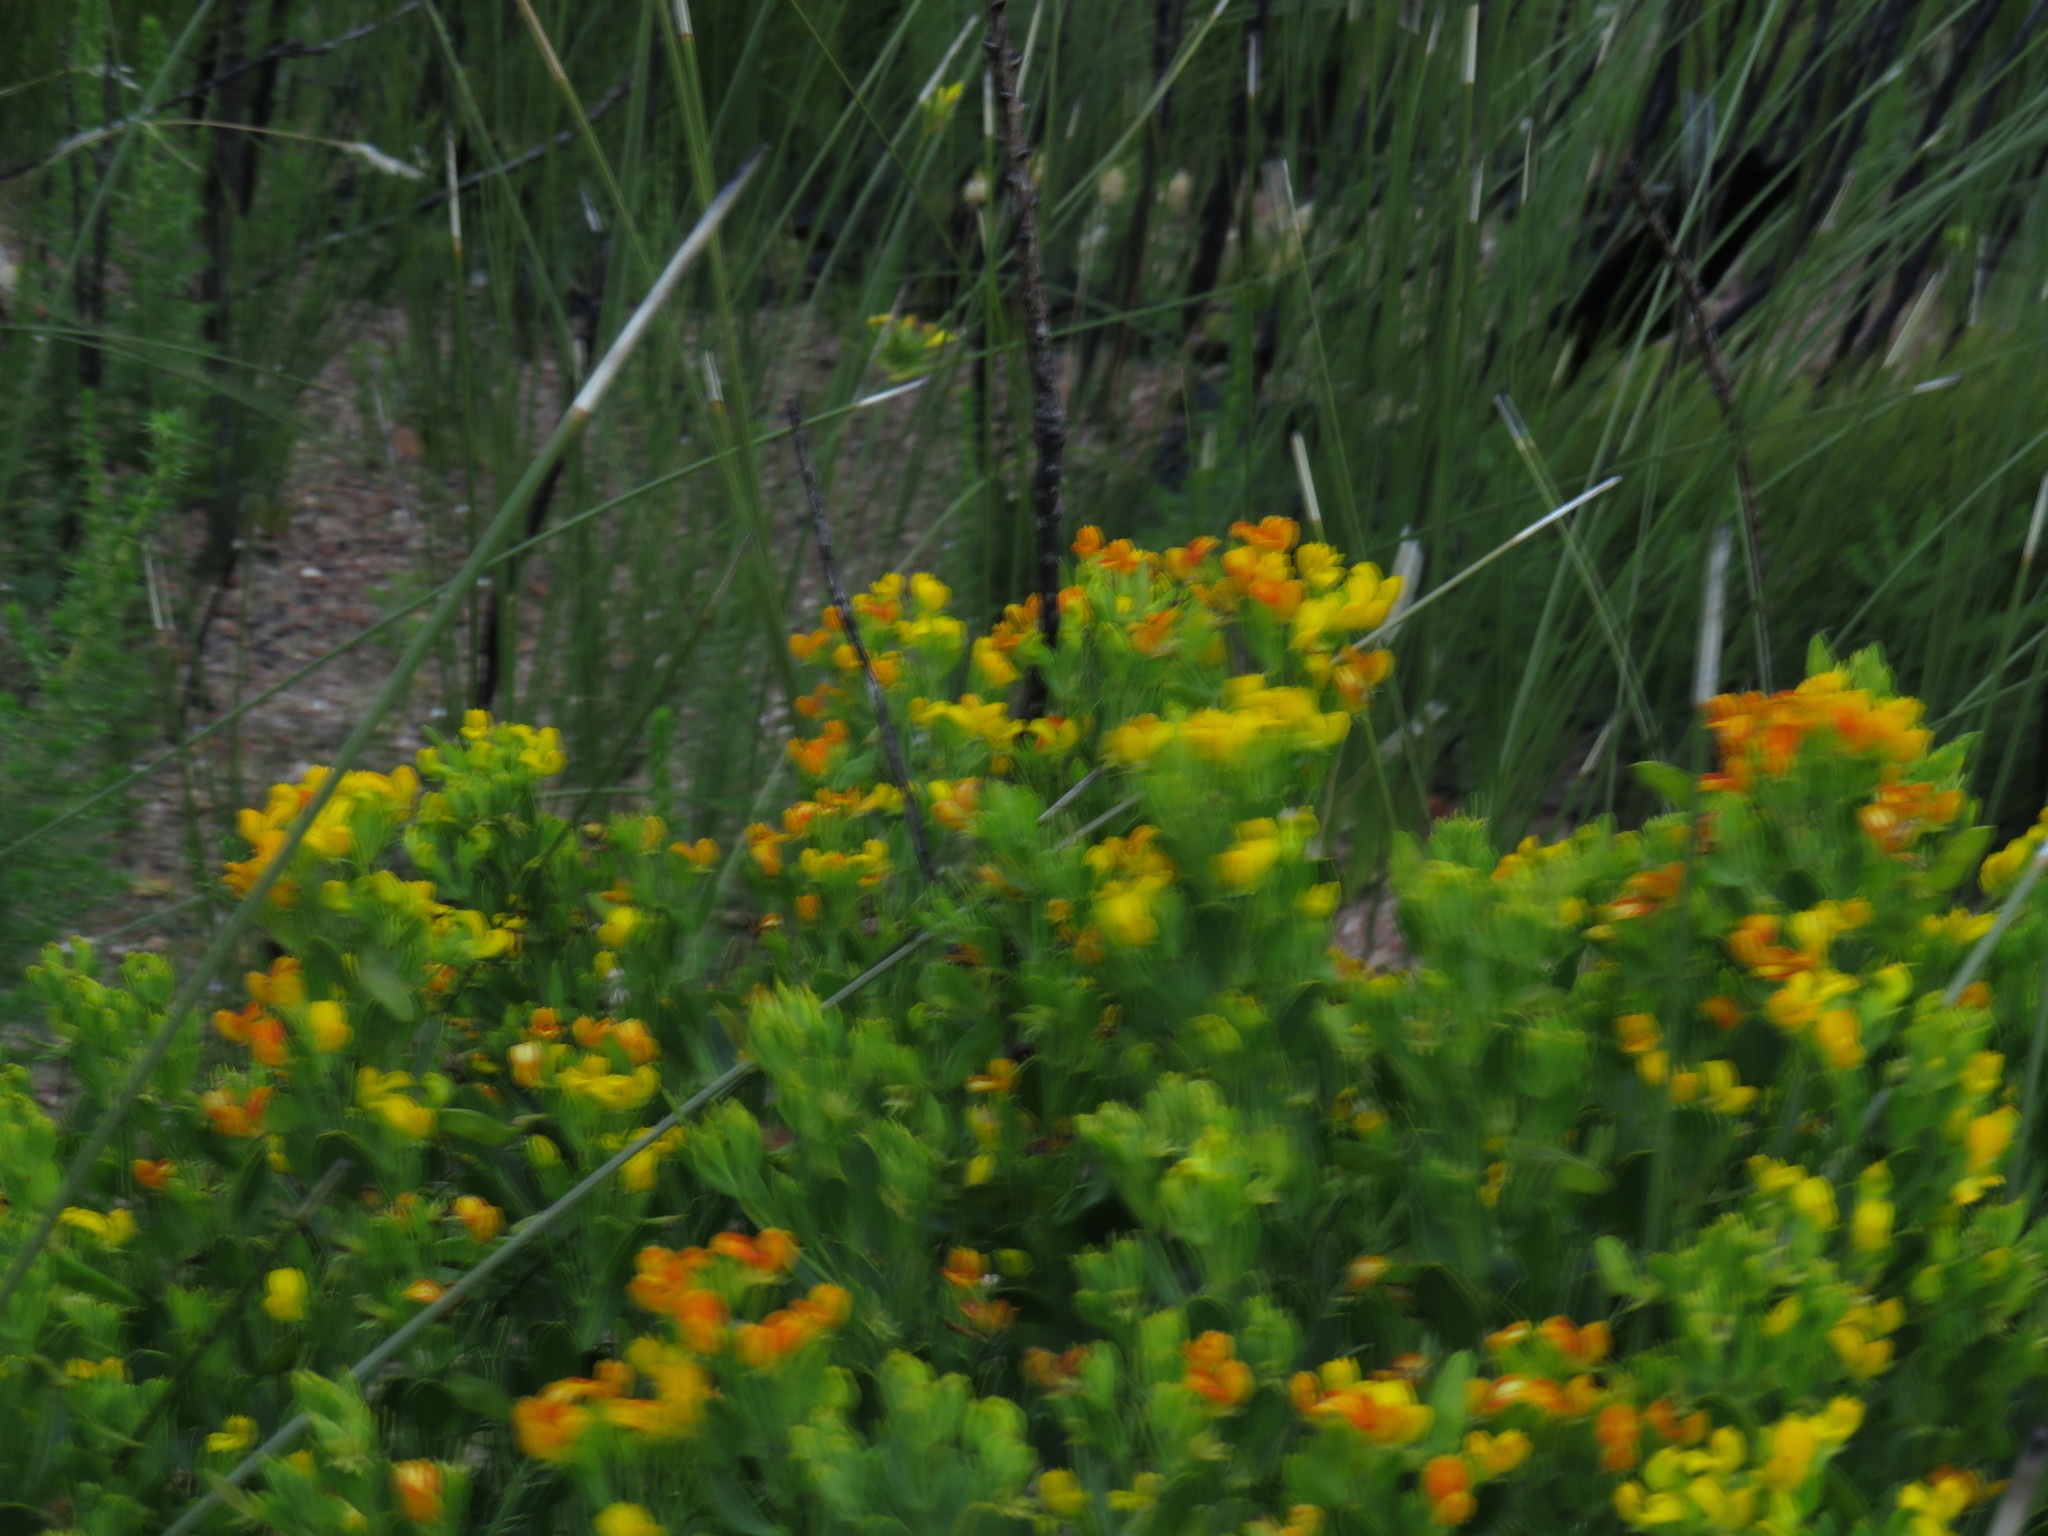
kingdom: Plantae
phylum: Tracheophyta
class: Magnoliopsida
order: Fabales
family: Fabaceae
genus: Rafnia
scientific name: Rafnia capensis
